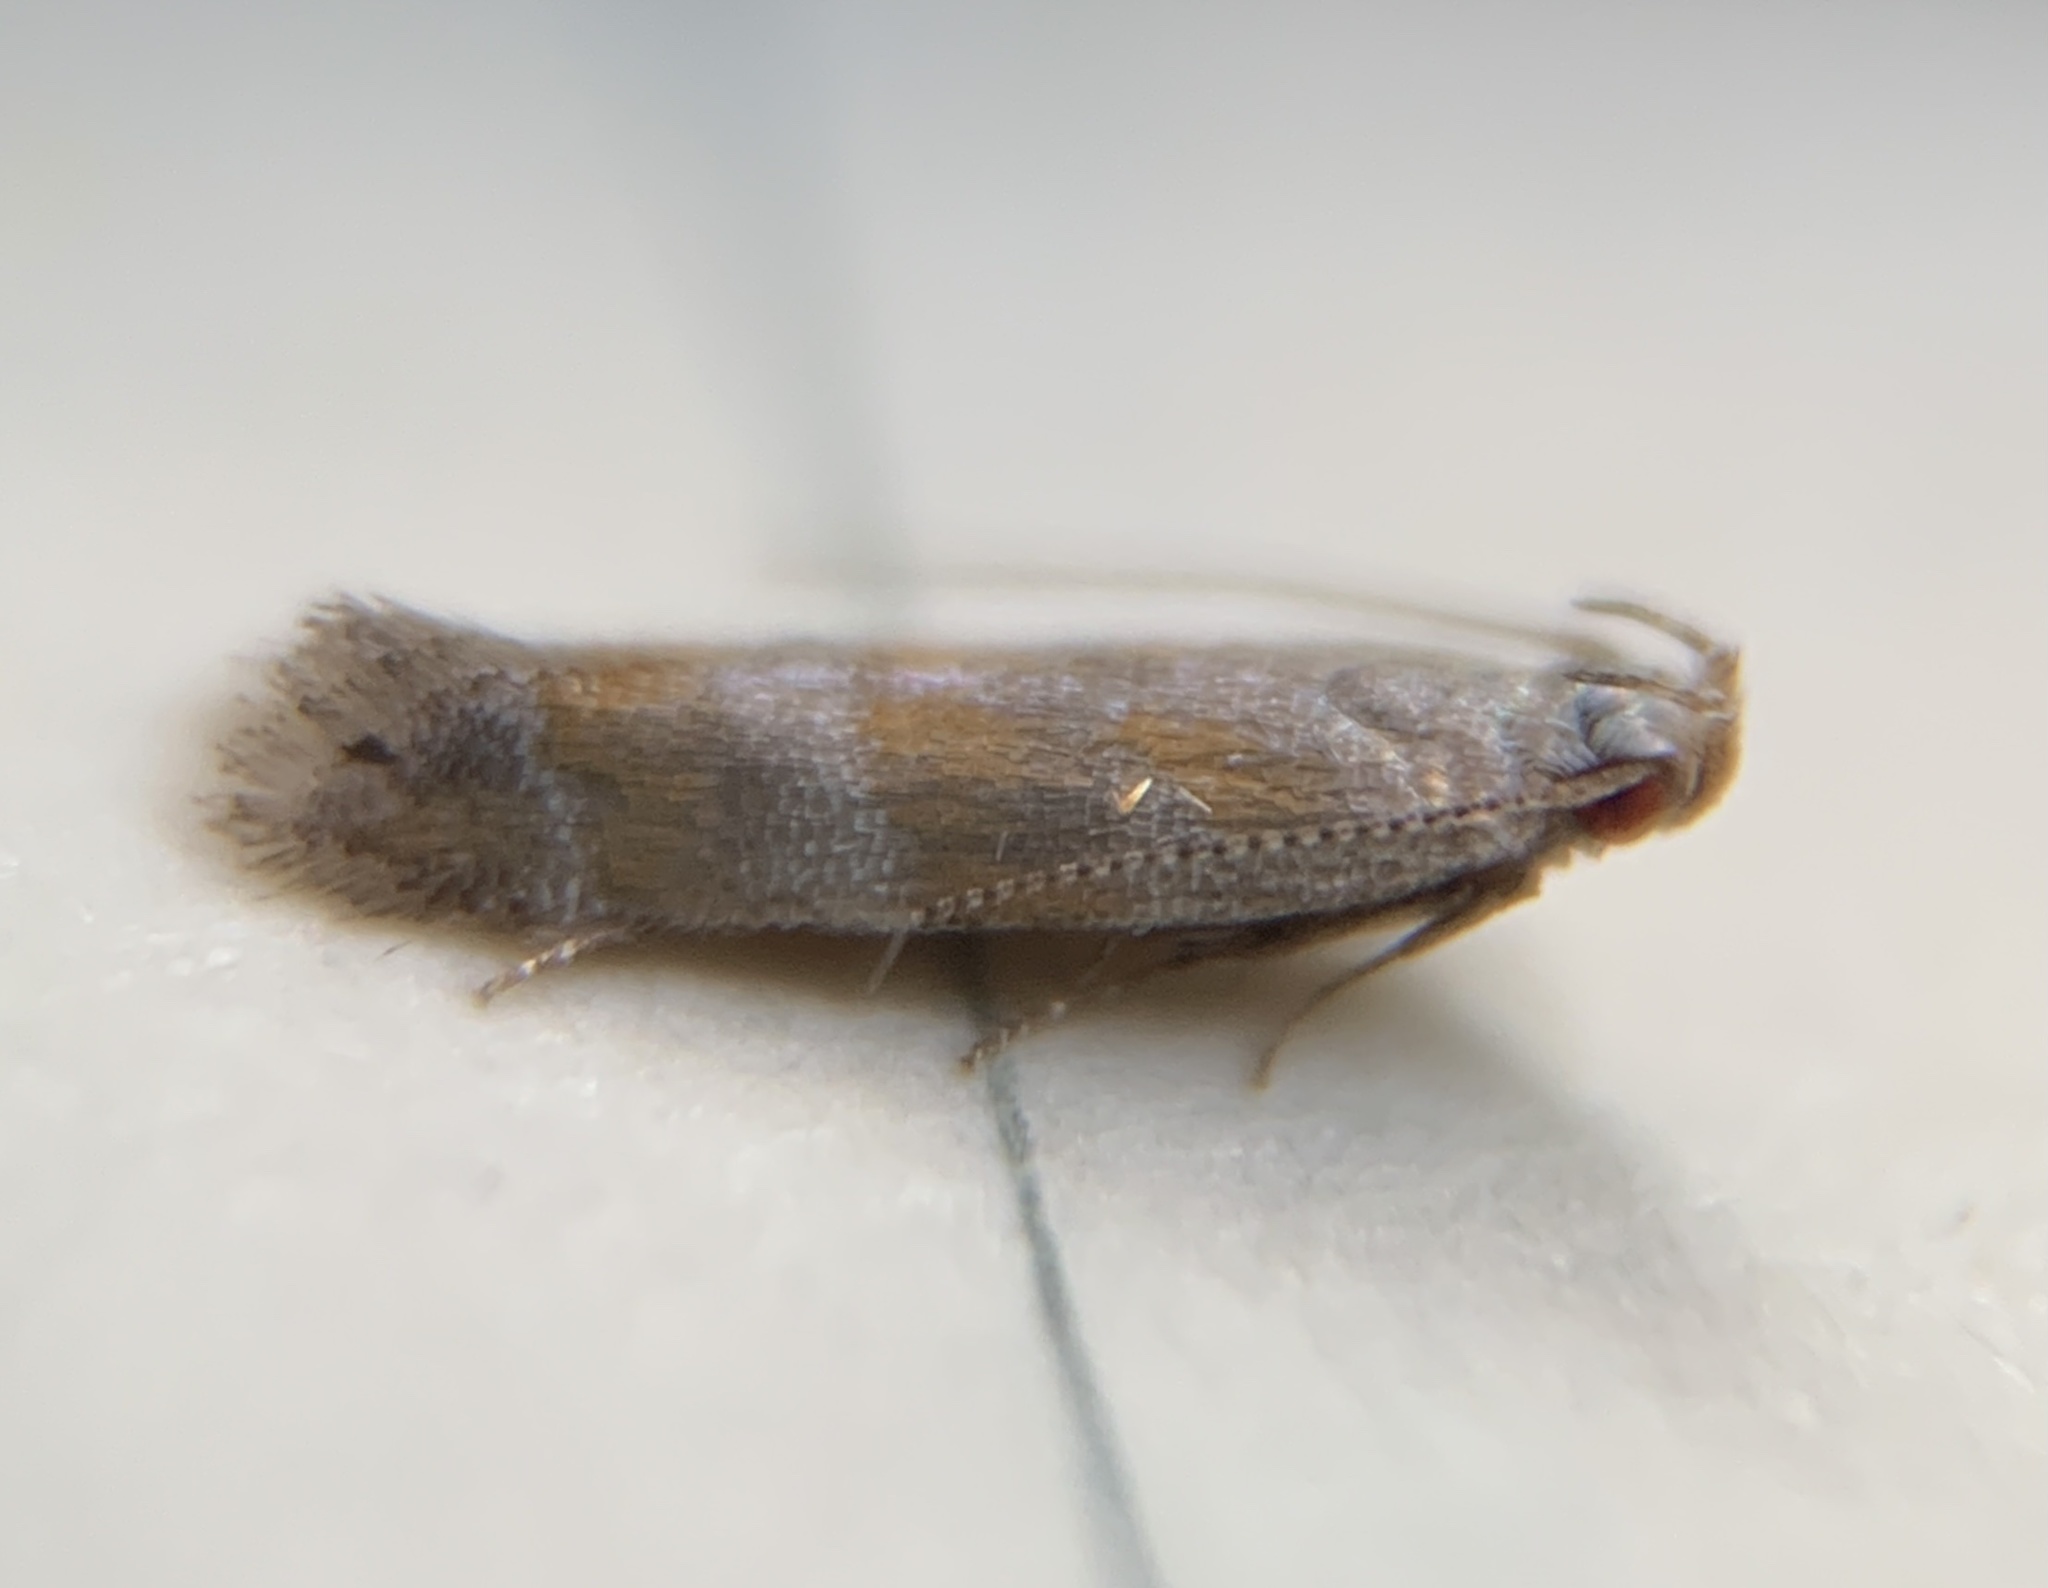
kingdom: Animalia
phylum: Arthropoda
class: Insecta
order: Lepidoptera
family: Gelechiidae
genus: Battaristis
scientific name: Battaristis vittella
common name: Orange stripe-backed moth
